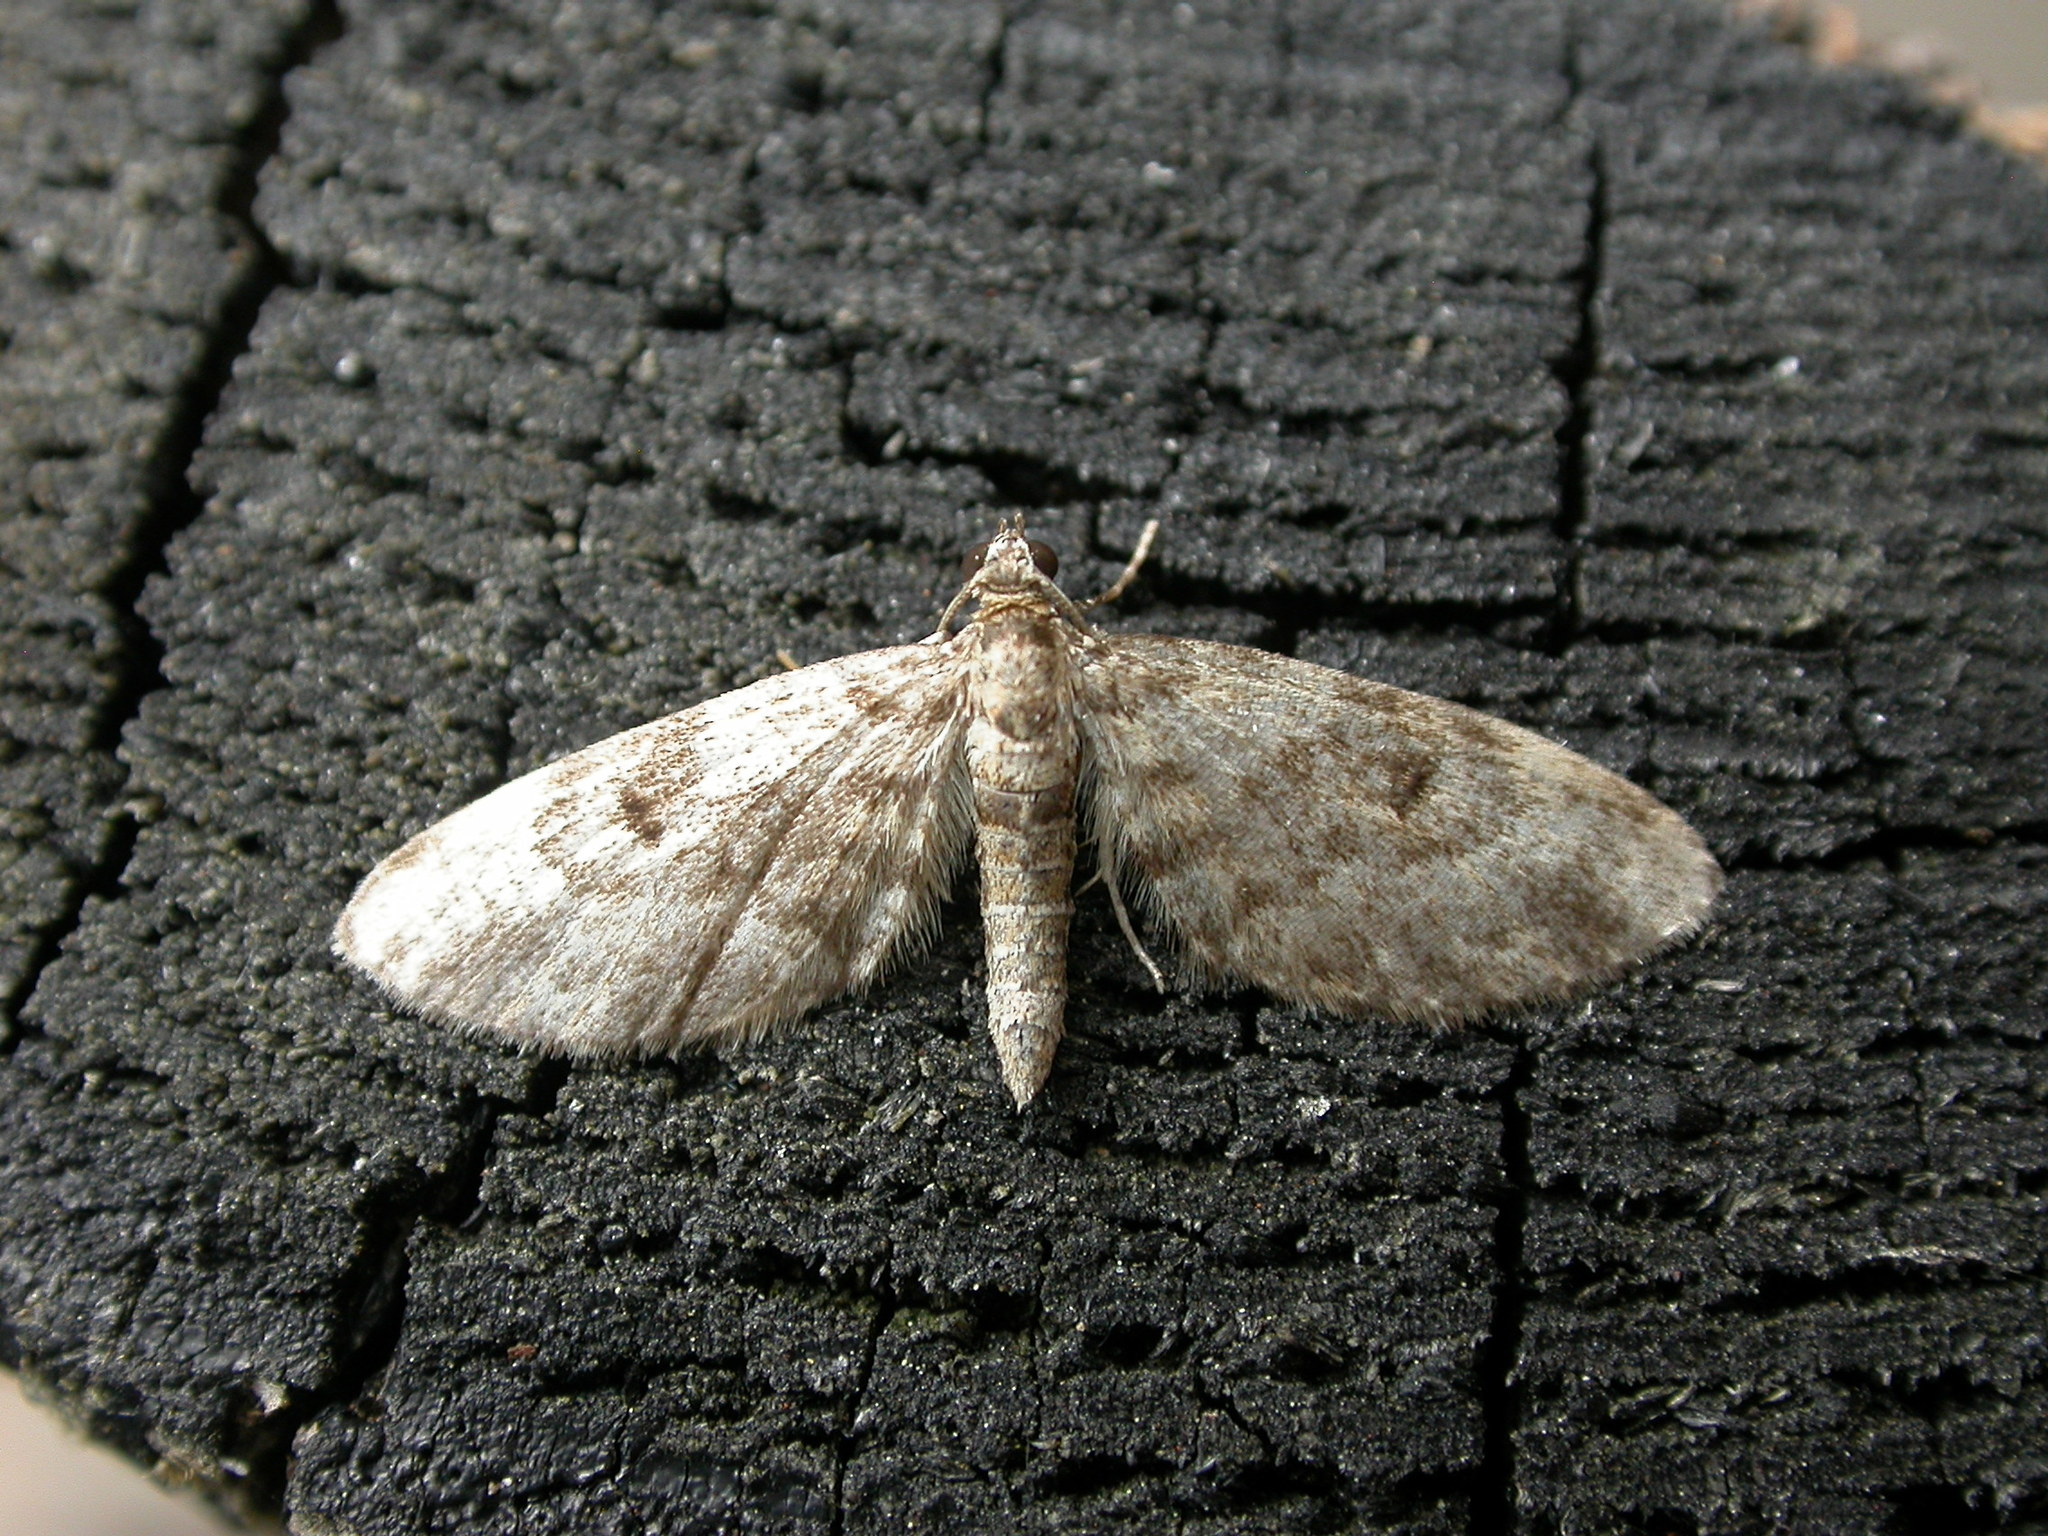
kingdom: Animalia
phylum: Arthropoda
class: Insecta
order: Lepidoptera
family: Geometridae
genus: Eupithecia
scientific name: Eupithecia tantillaria
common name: Dwarf pug
